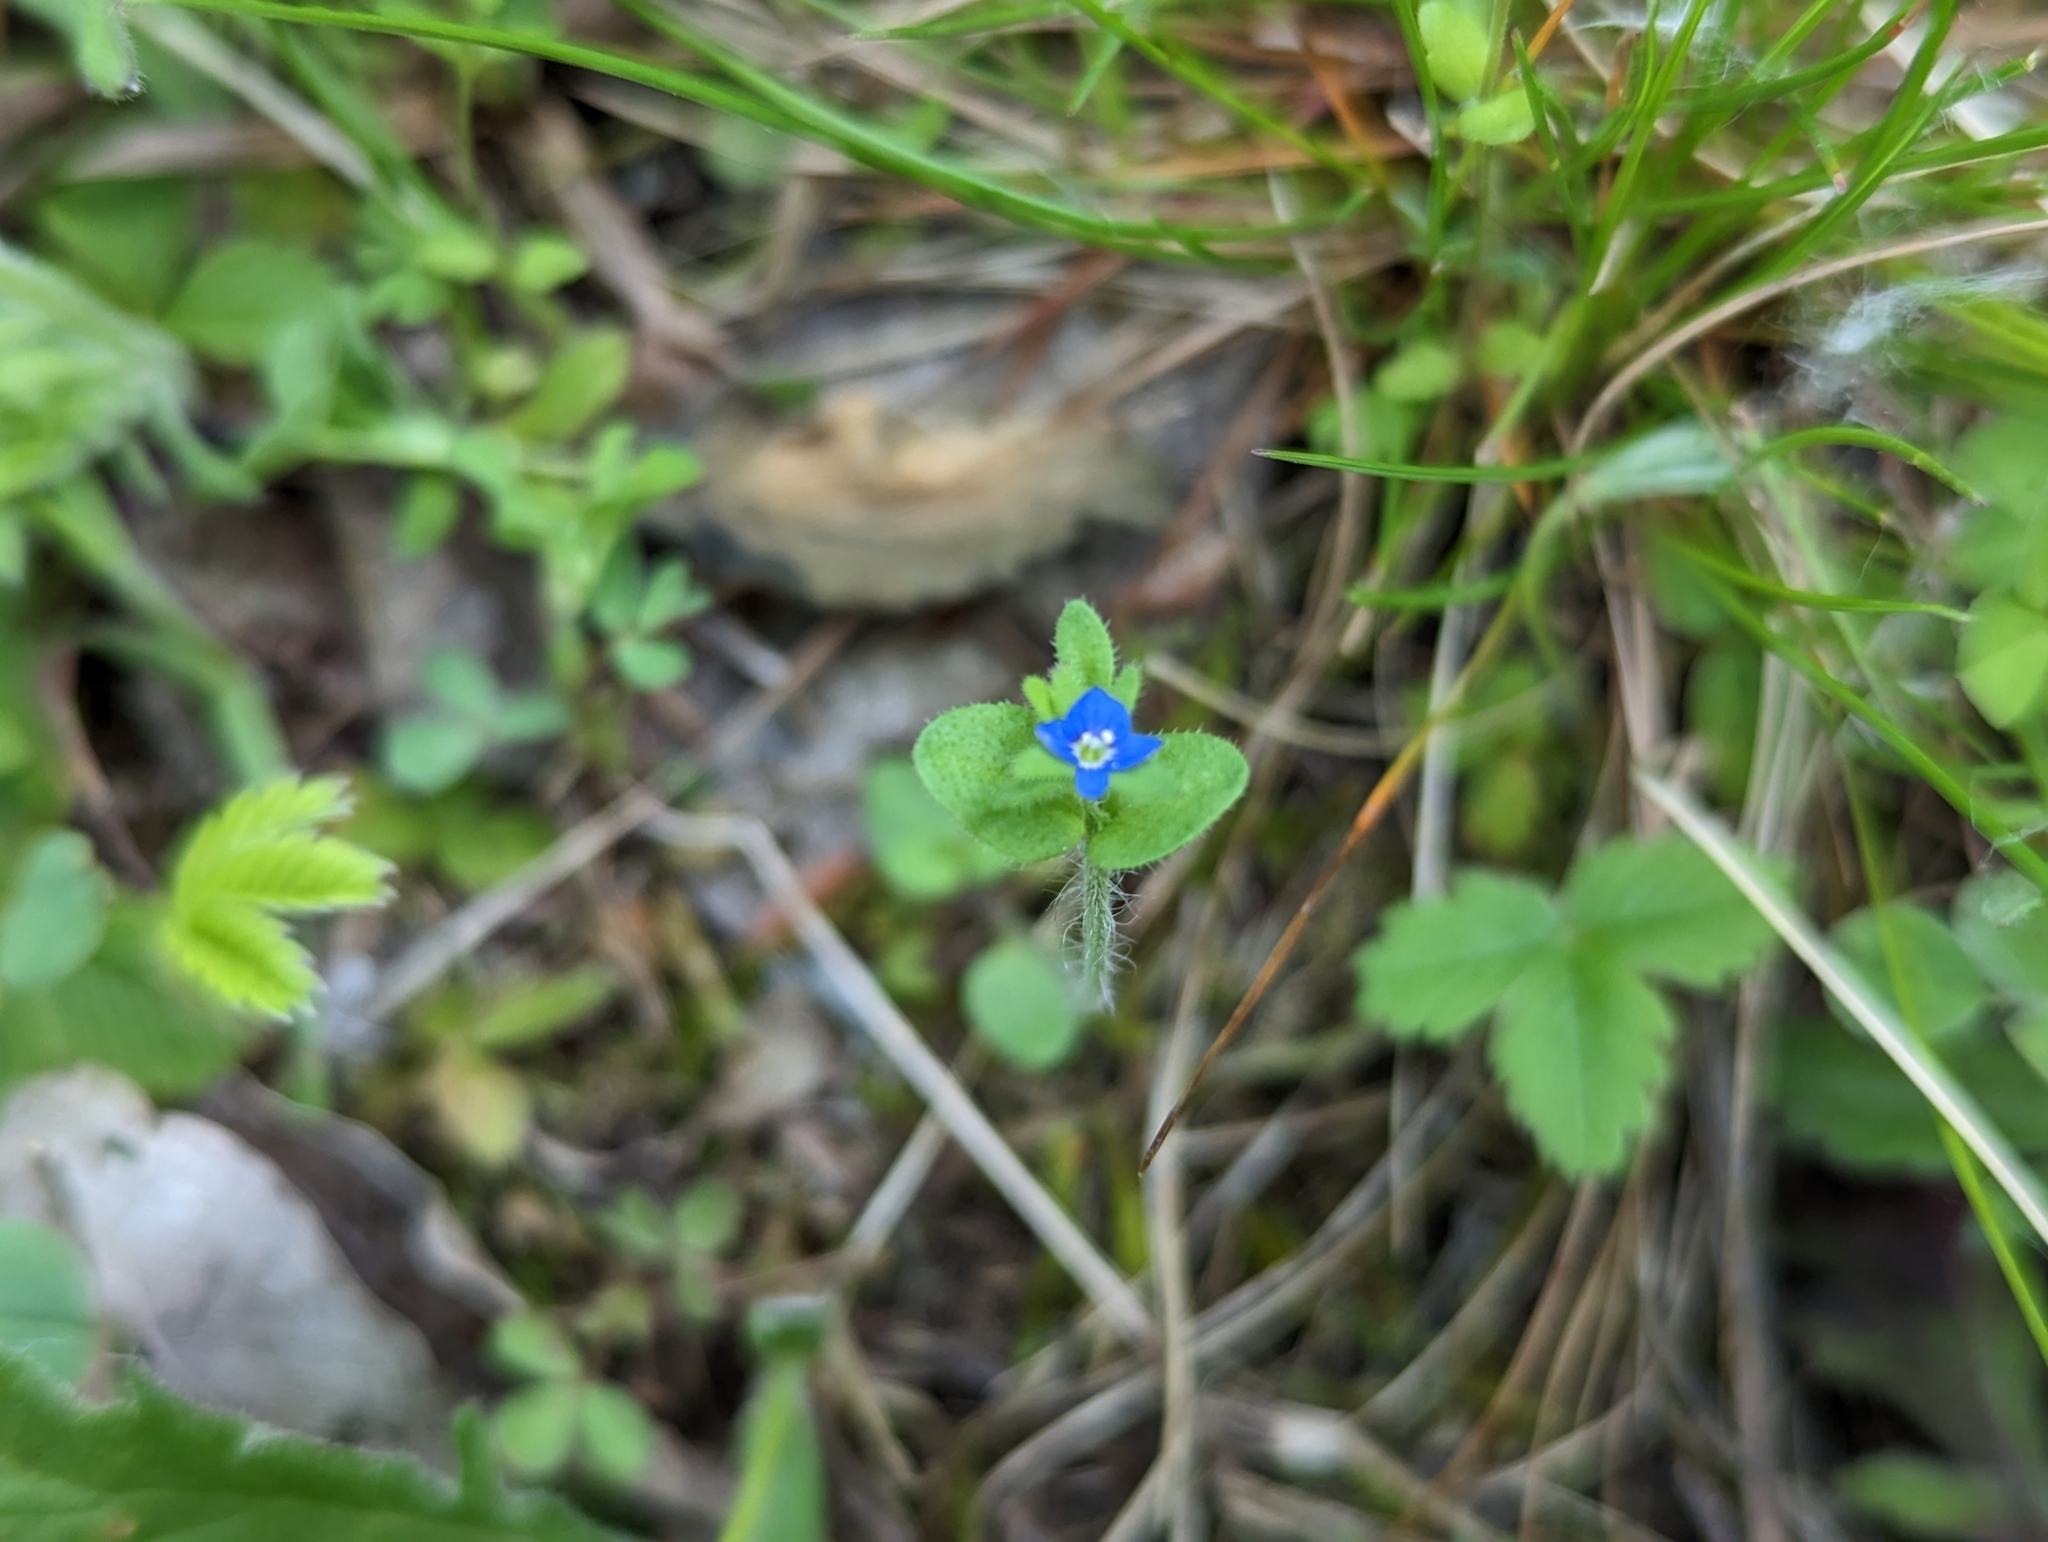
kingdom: Plantae
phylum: Tracheophyta
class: Magnoliopsida
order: Lamiales
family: Plantaginaceae
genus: Veronica
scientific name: Veronica arvensis
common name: Corn speedwell
